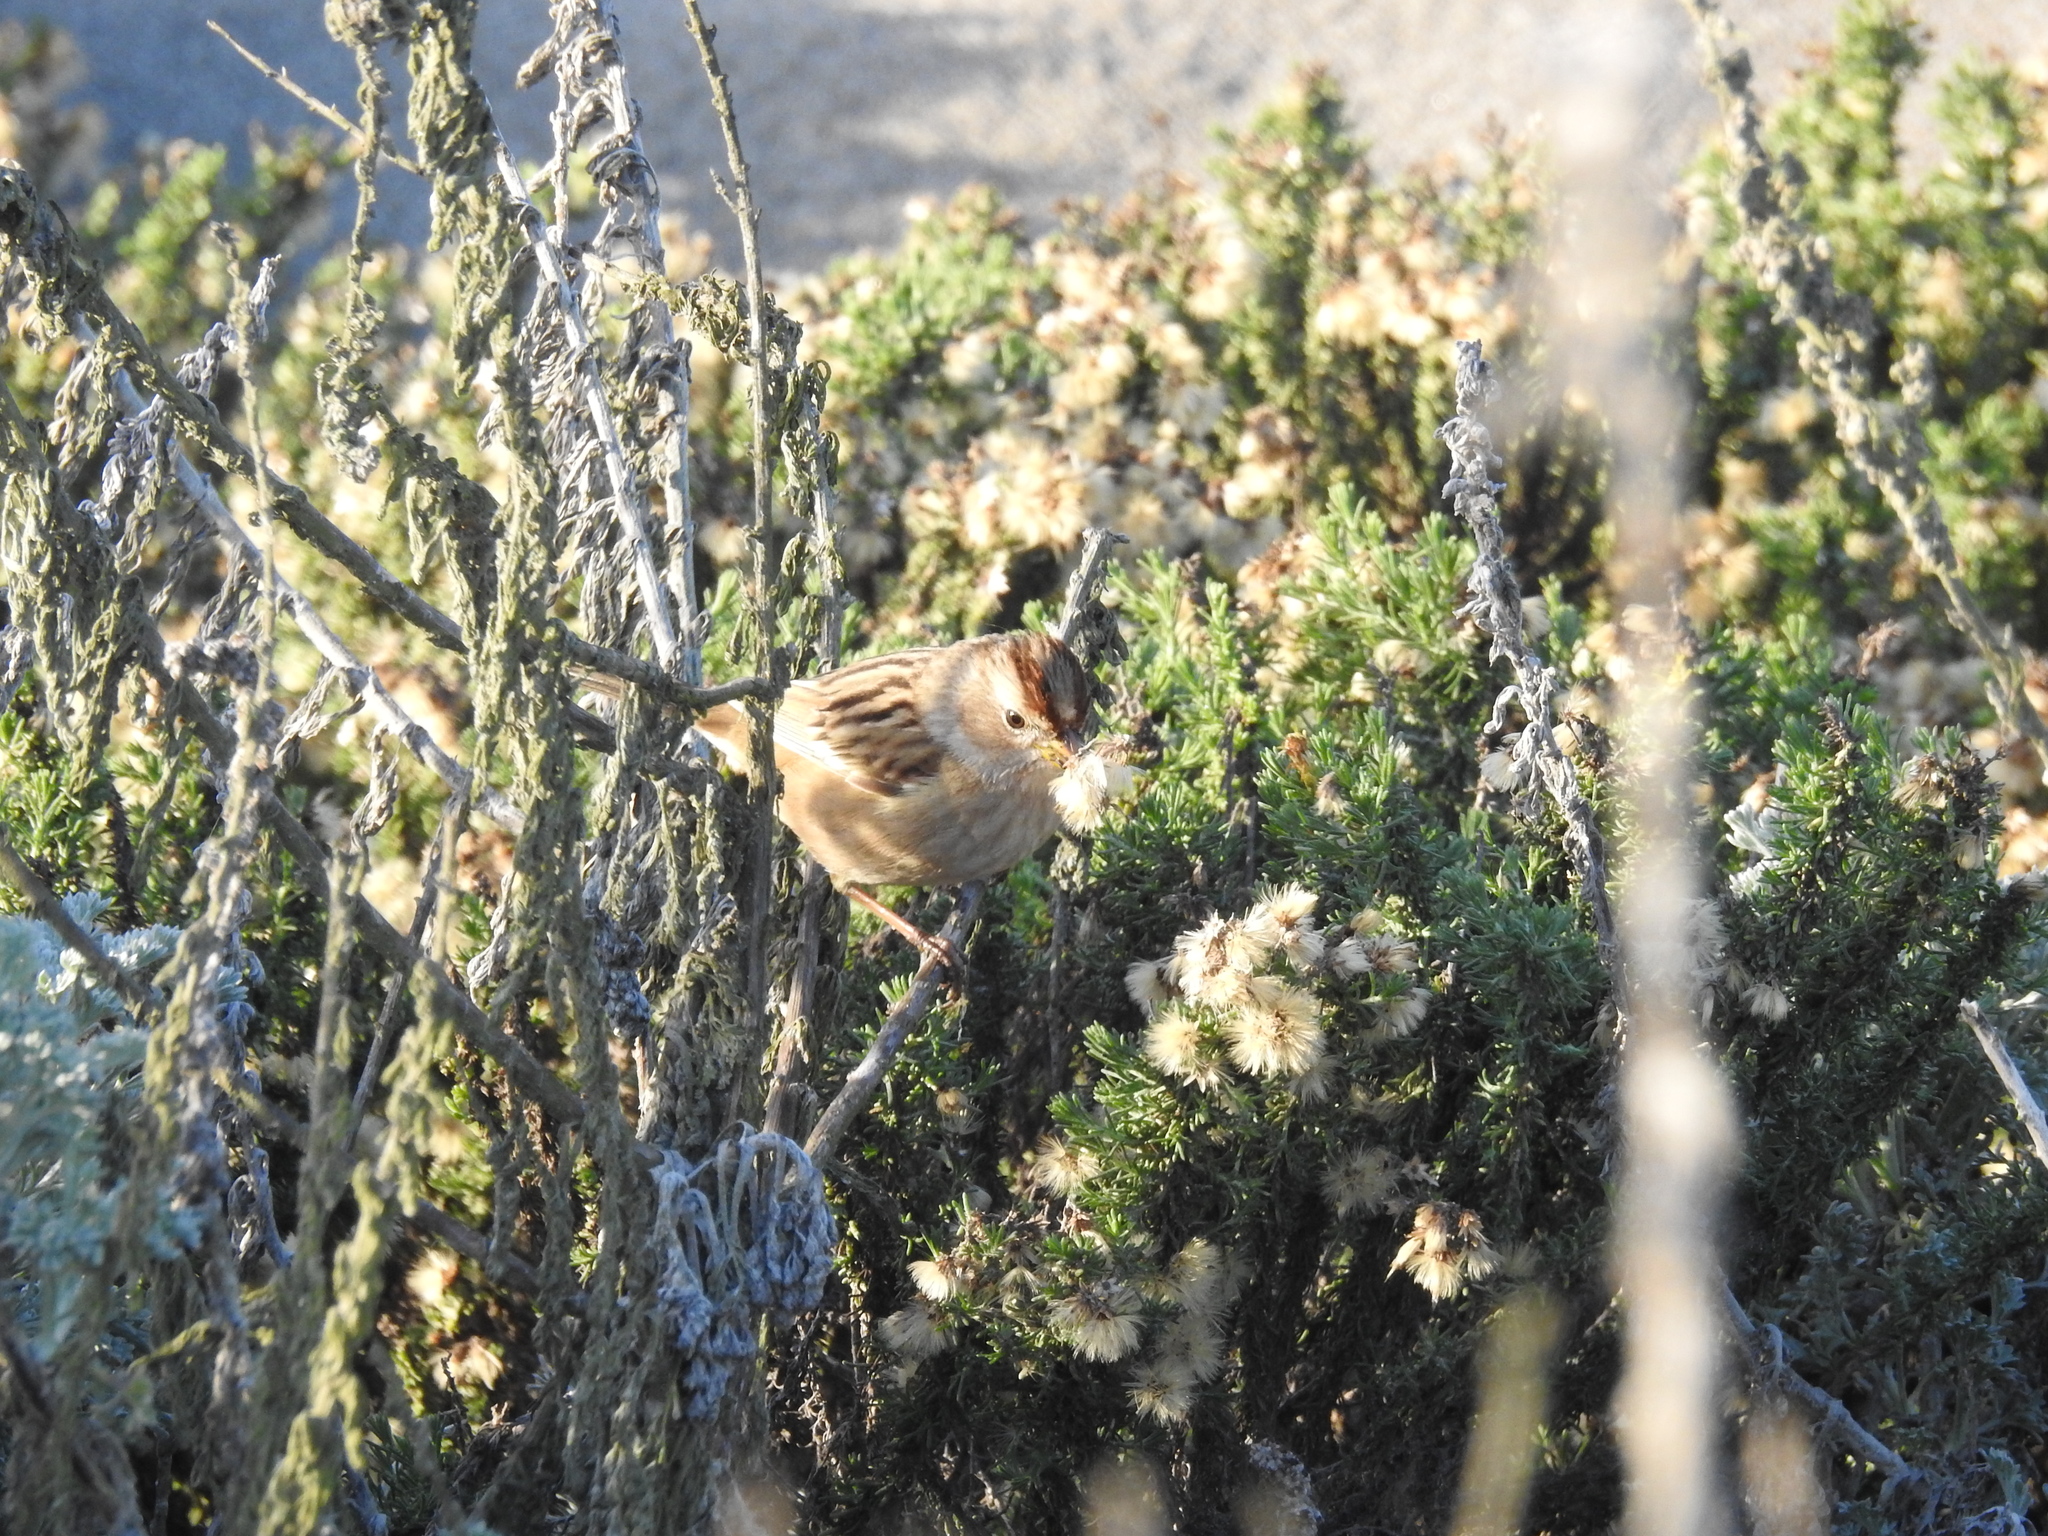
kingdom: Animalia
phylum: Chordata
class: Aves
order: Passeriformes
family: Passerellidae
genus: Zonotrichia
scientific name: Zonotrichia leucophrys
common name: White-crowned sparrow
